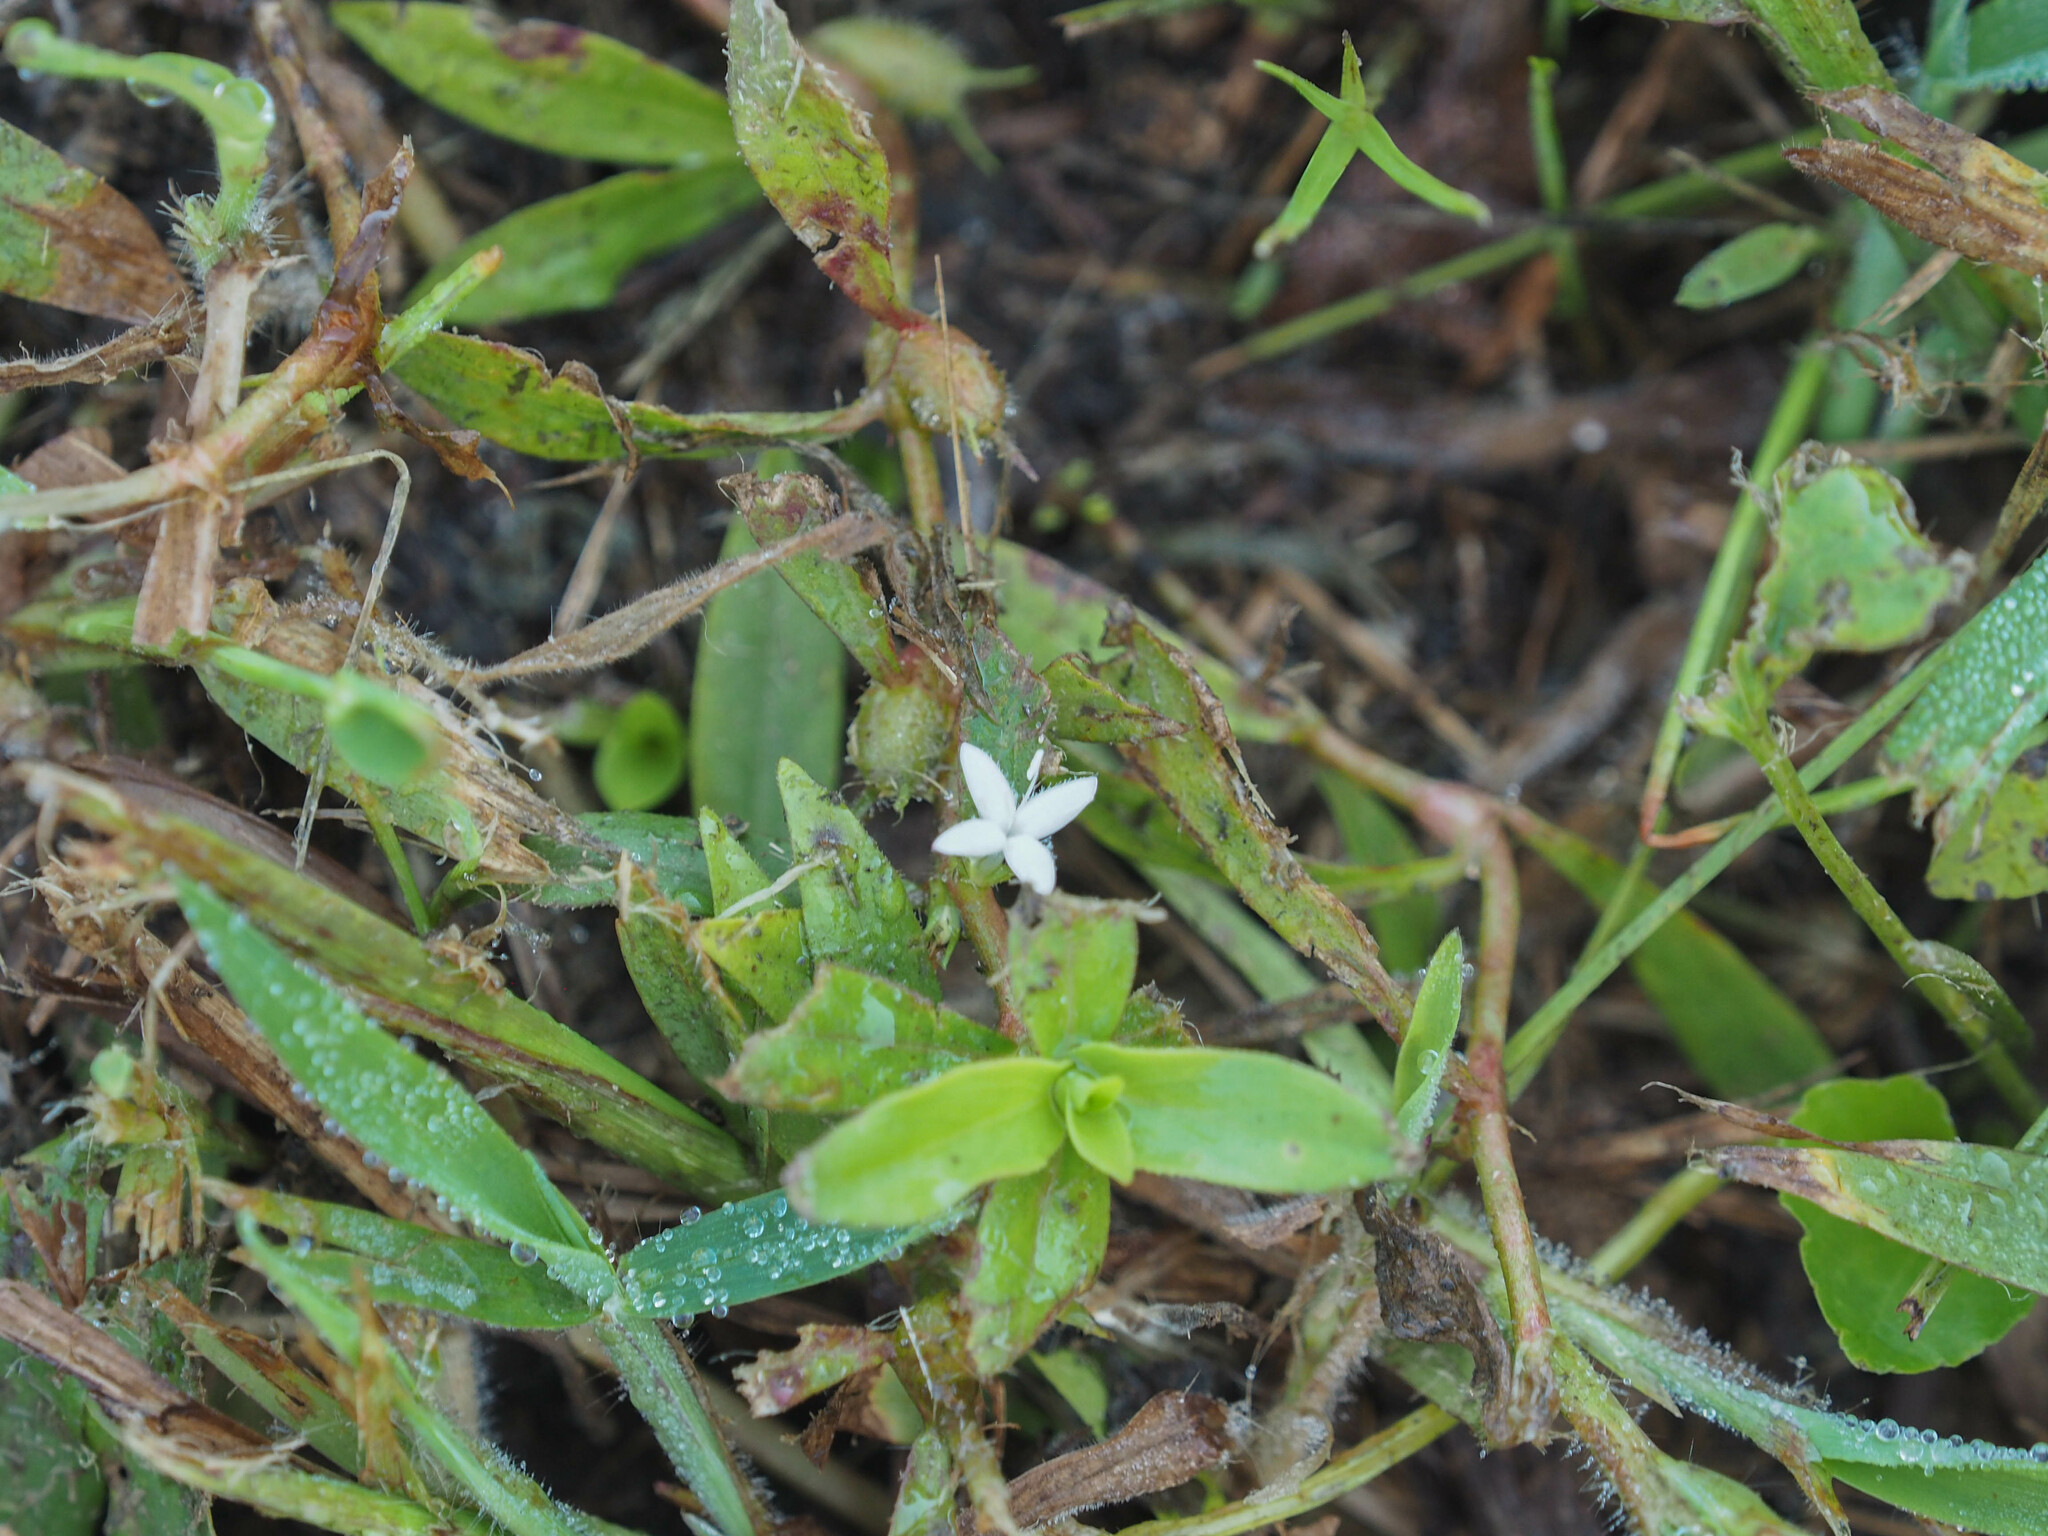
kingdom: Plantae
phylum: Tracheophyta
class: Magnoliopsida
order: Gentianales
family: Rubiaceae
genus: Diodia
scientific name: Diodia virginiana
